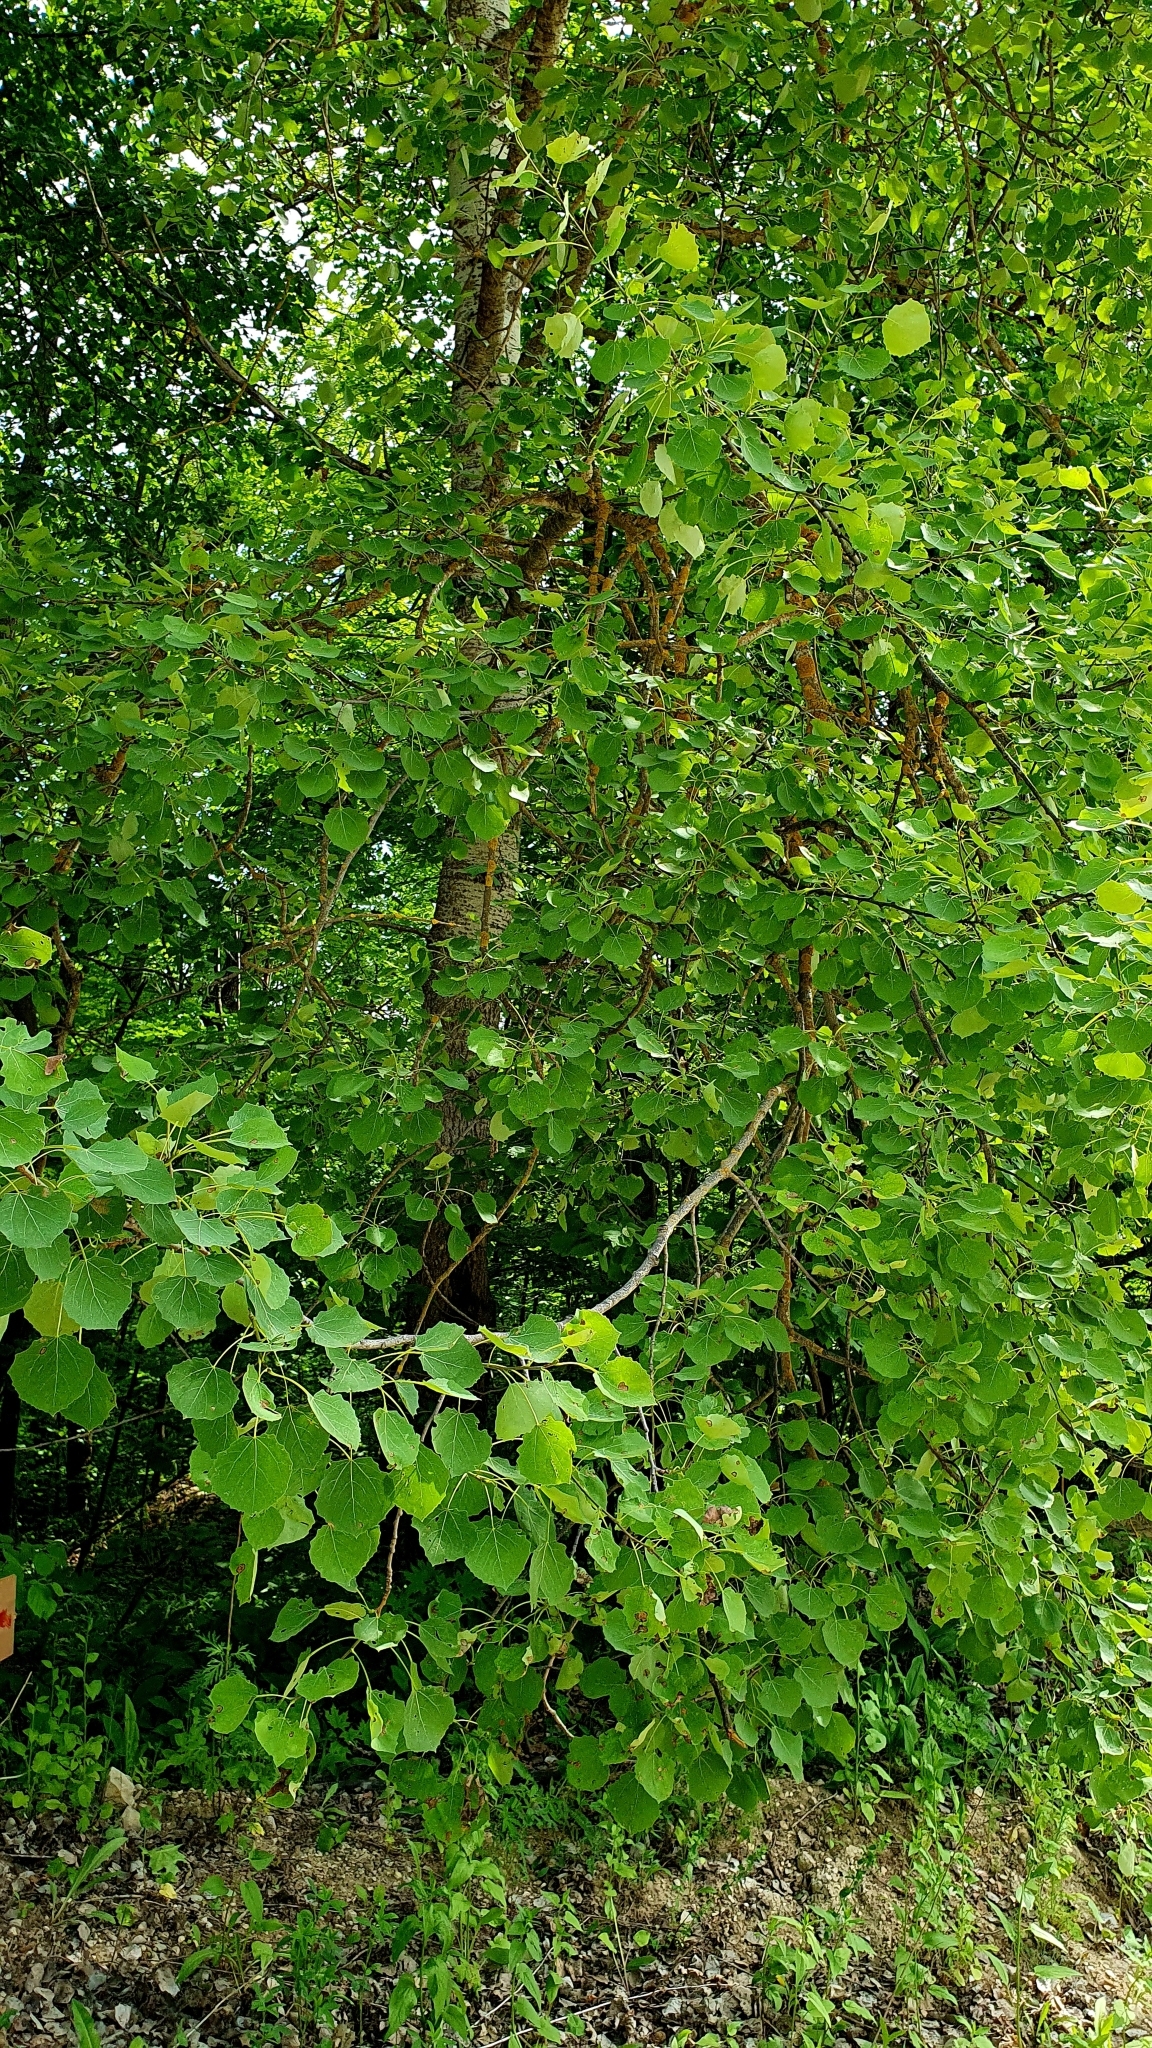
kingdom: Plantae
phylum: Tracheophyta
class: Magnoliopsida
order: Malpighiales
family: Salicaceae
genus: Populus
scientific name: Populus tremula
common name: European aspen
